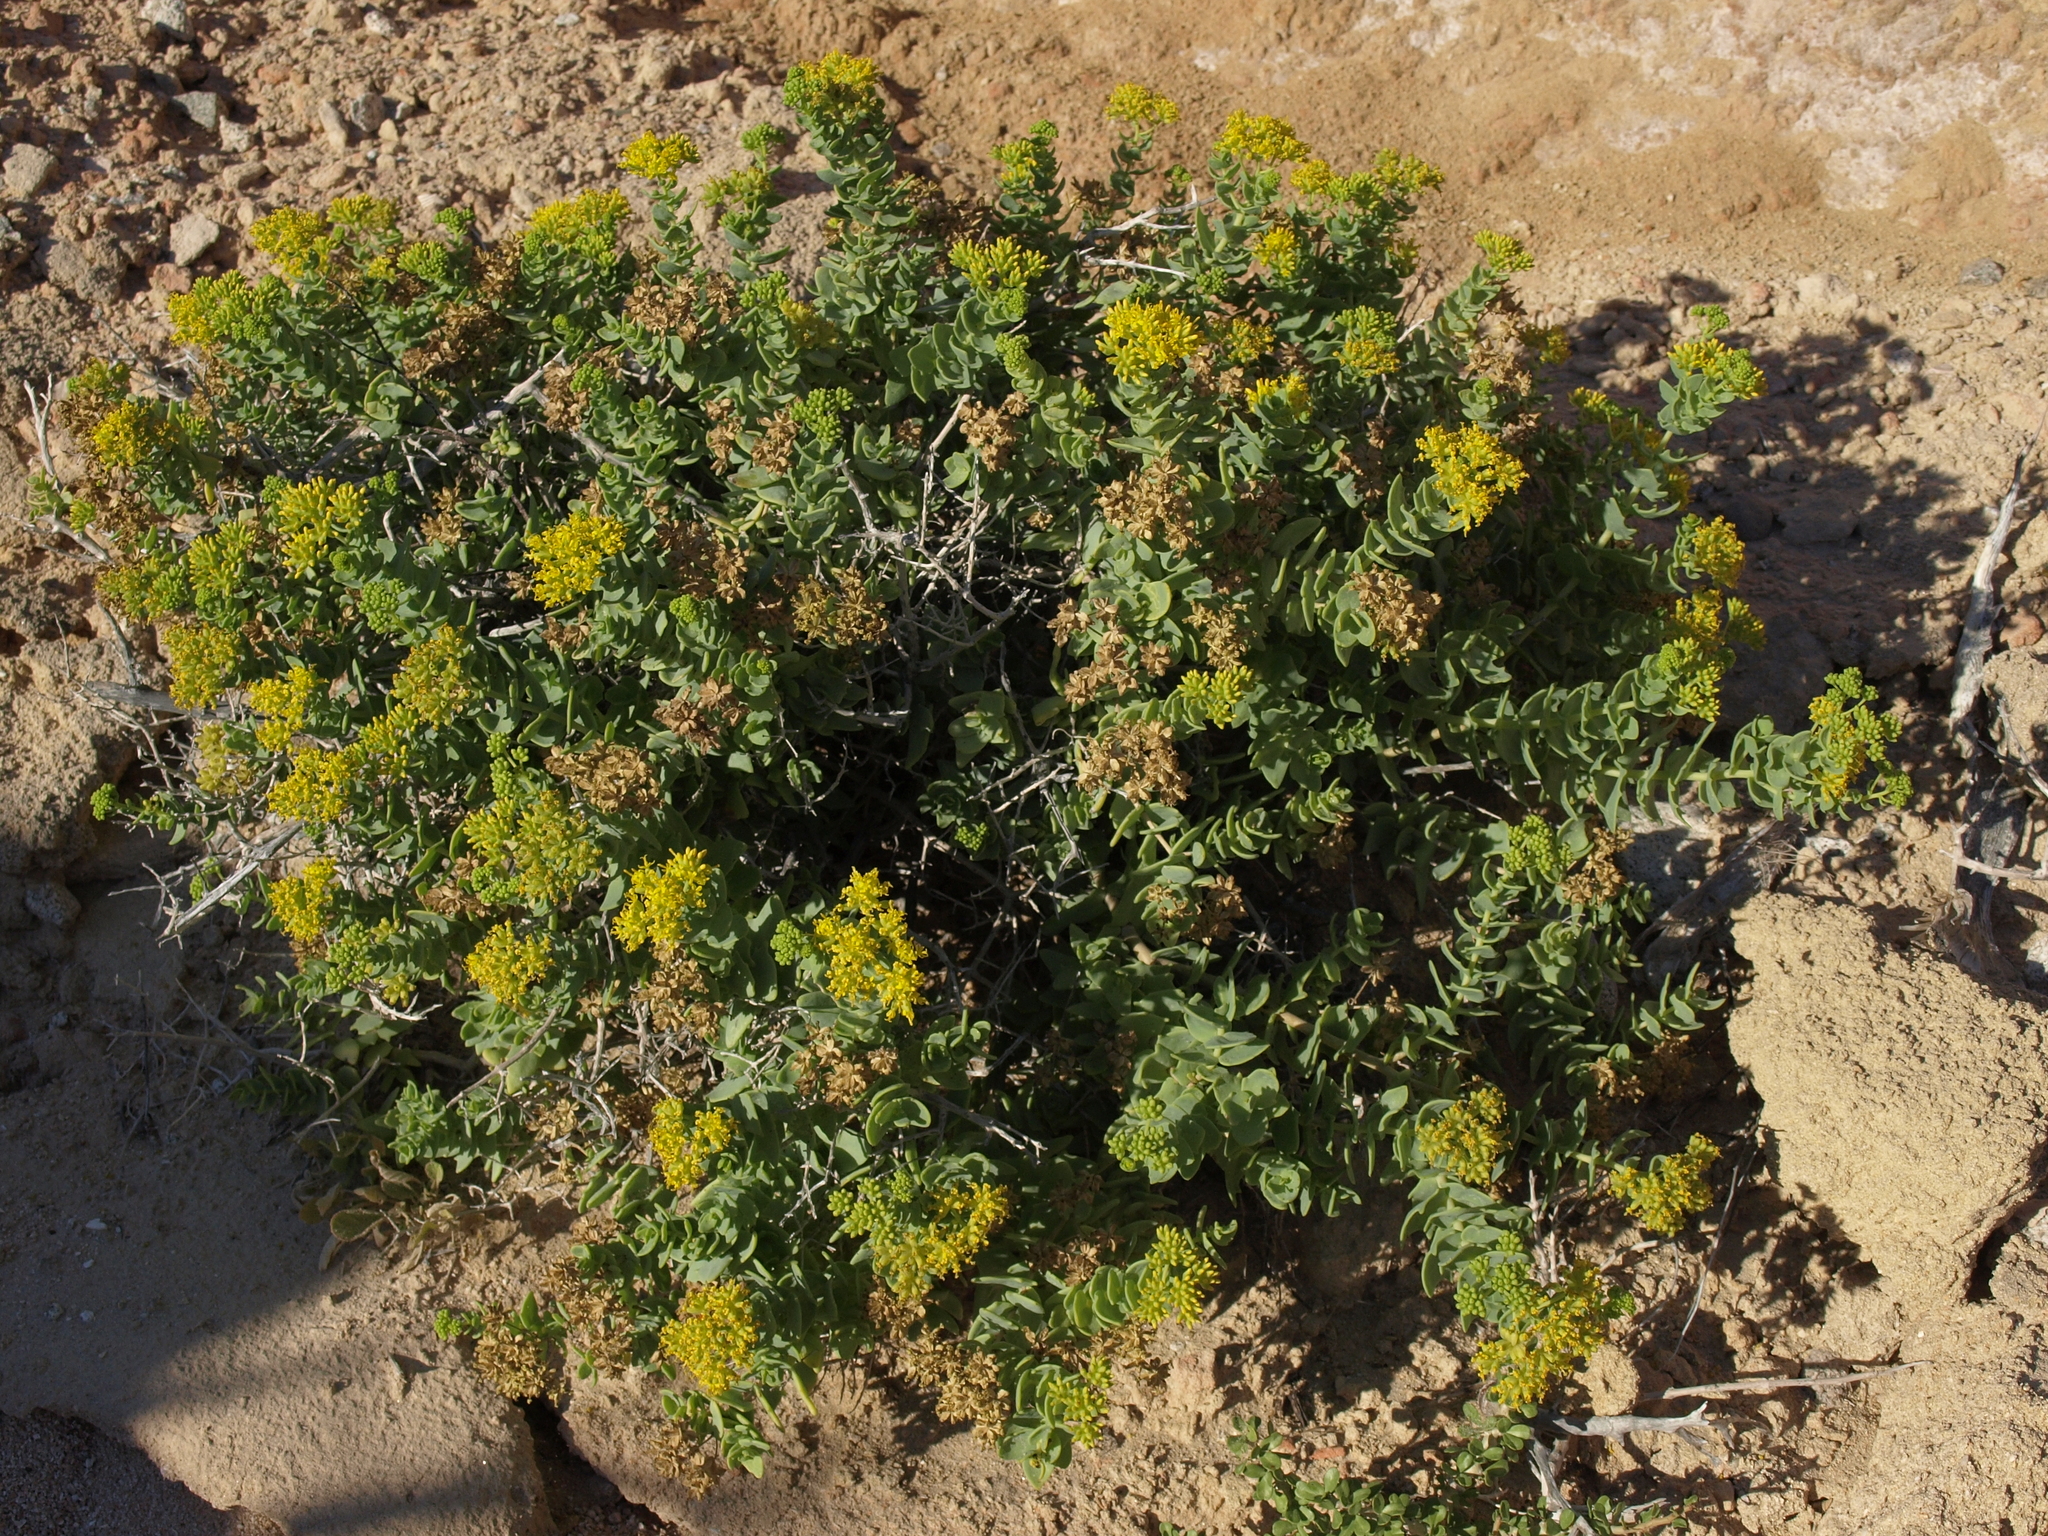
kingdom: Plantae
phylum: Tracheophyta
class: Magnoliopsida
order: Asterales
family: Asteraceae
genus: Coulterella
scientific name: Coulterella capitata
